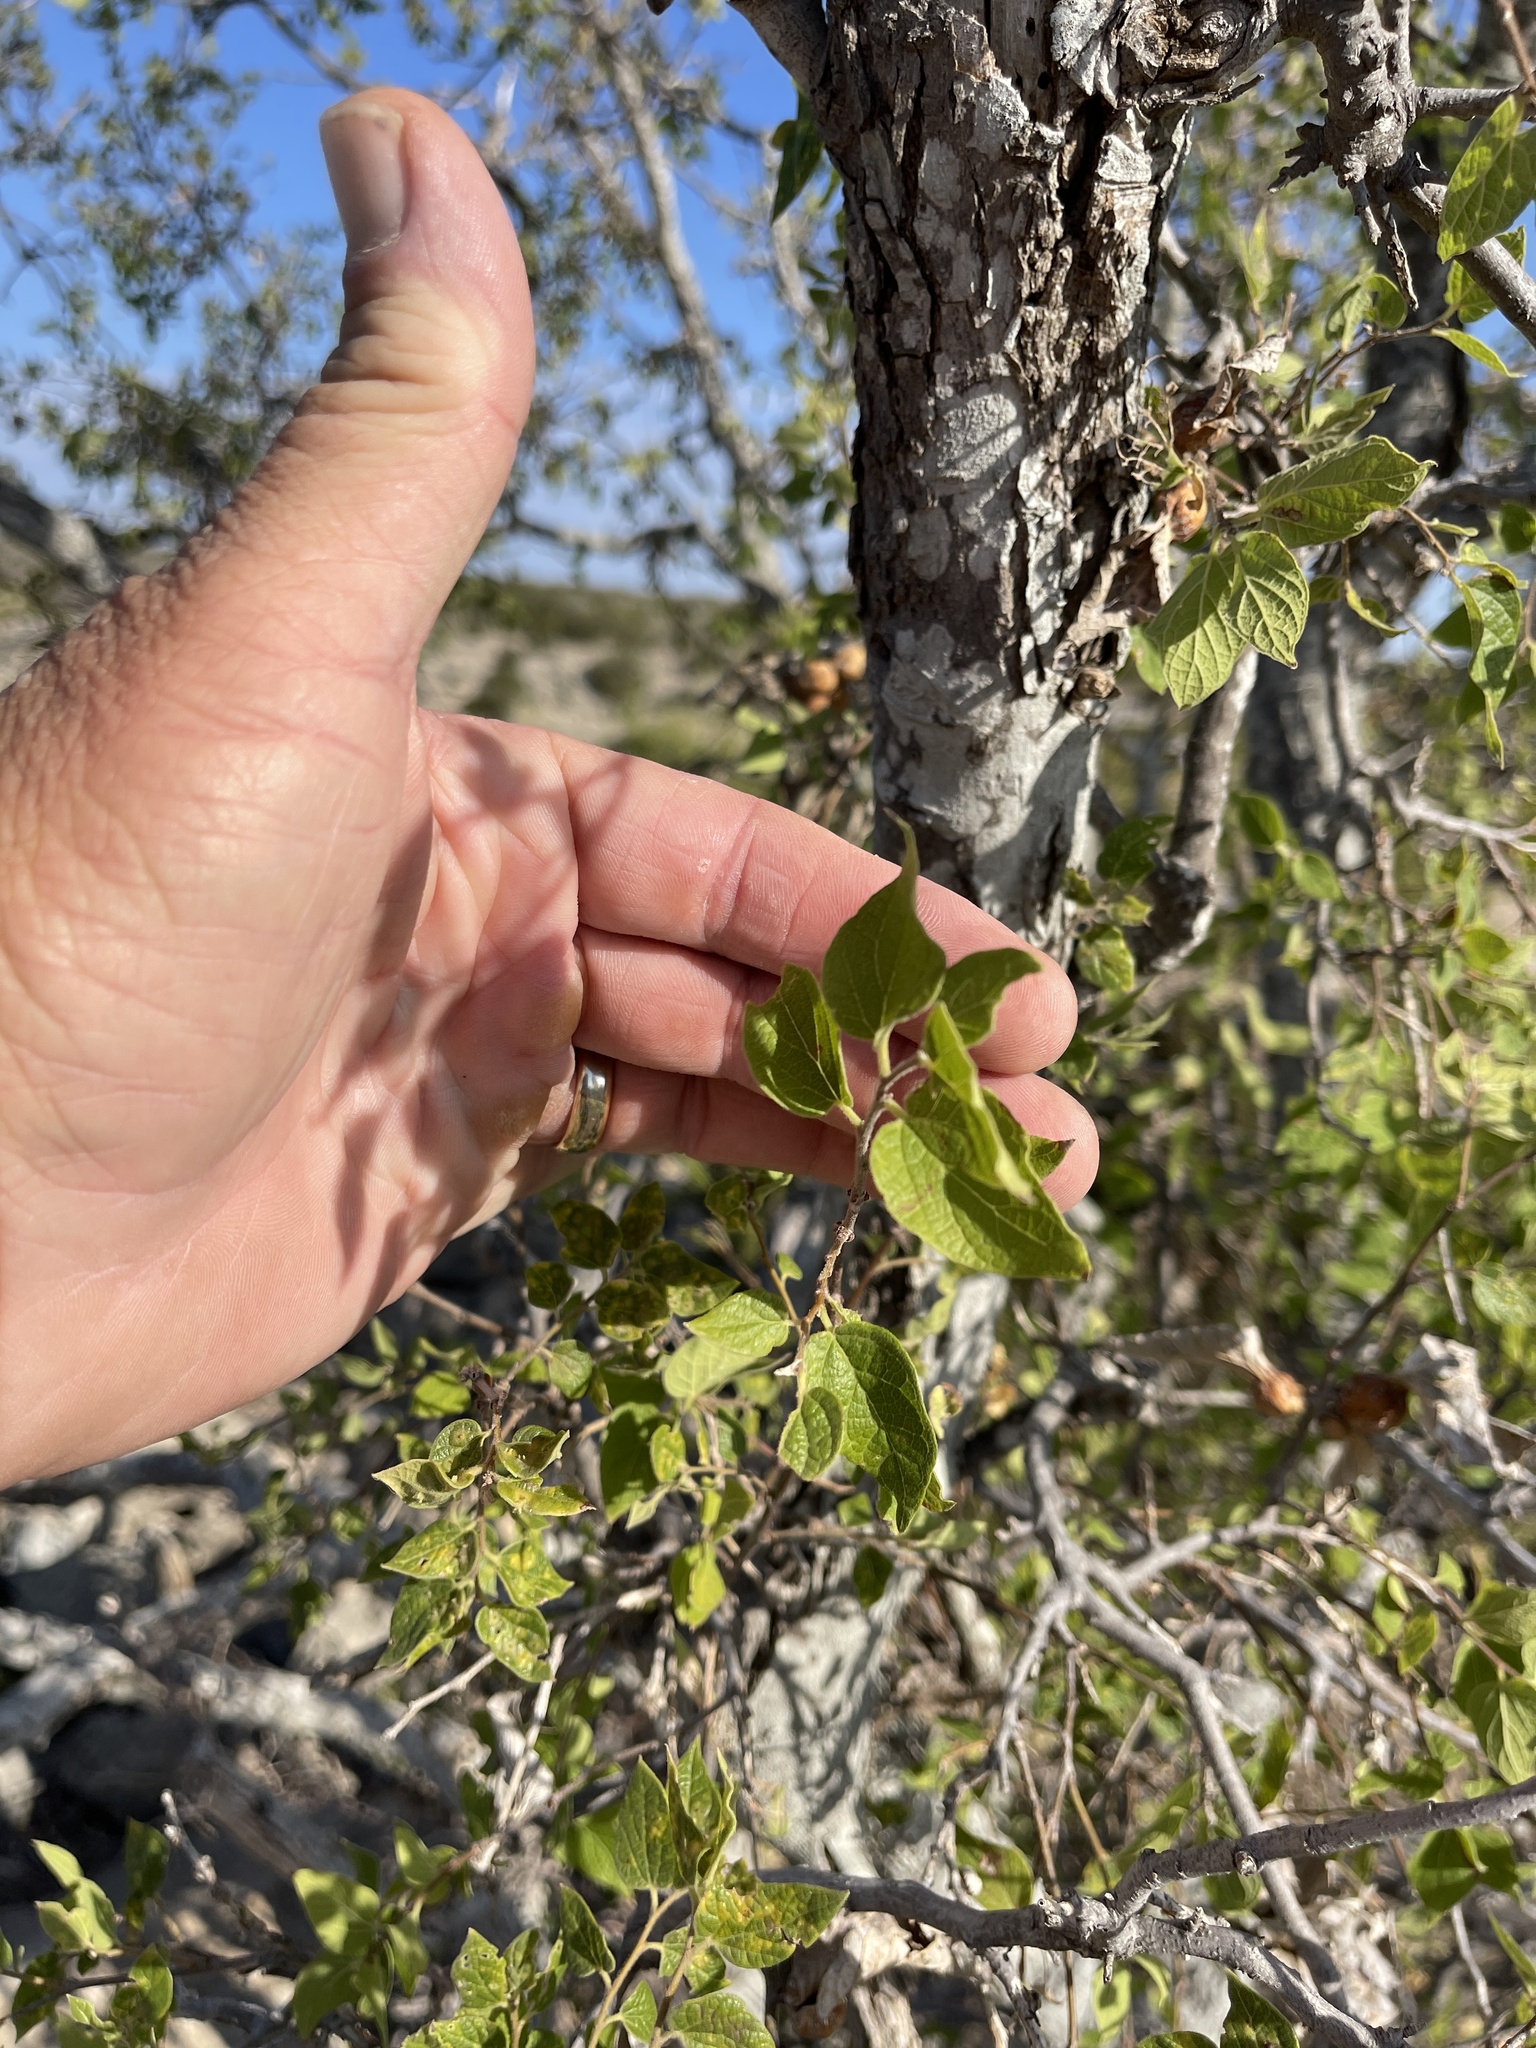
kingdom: Plantae
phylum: Tracheophyta
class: Magnoliopsida
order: Rosales
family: Cannabaceae
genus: Celtis
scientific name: Celtis reticulata
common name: Netleaf hackberry
